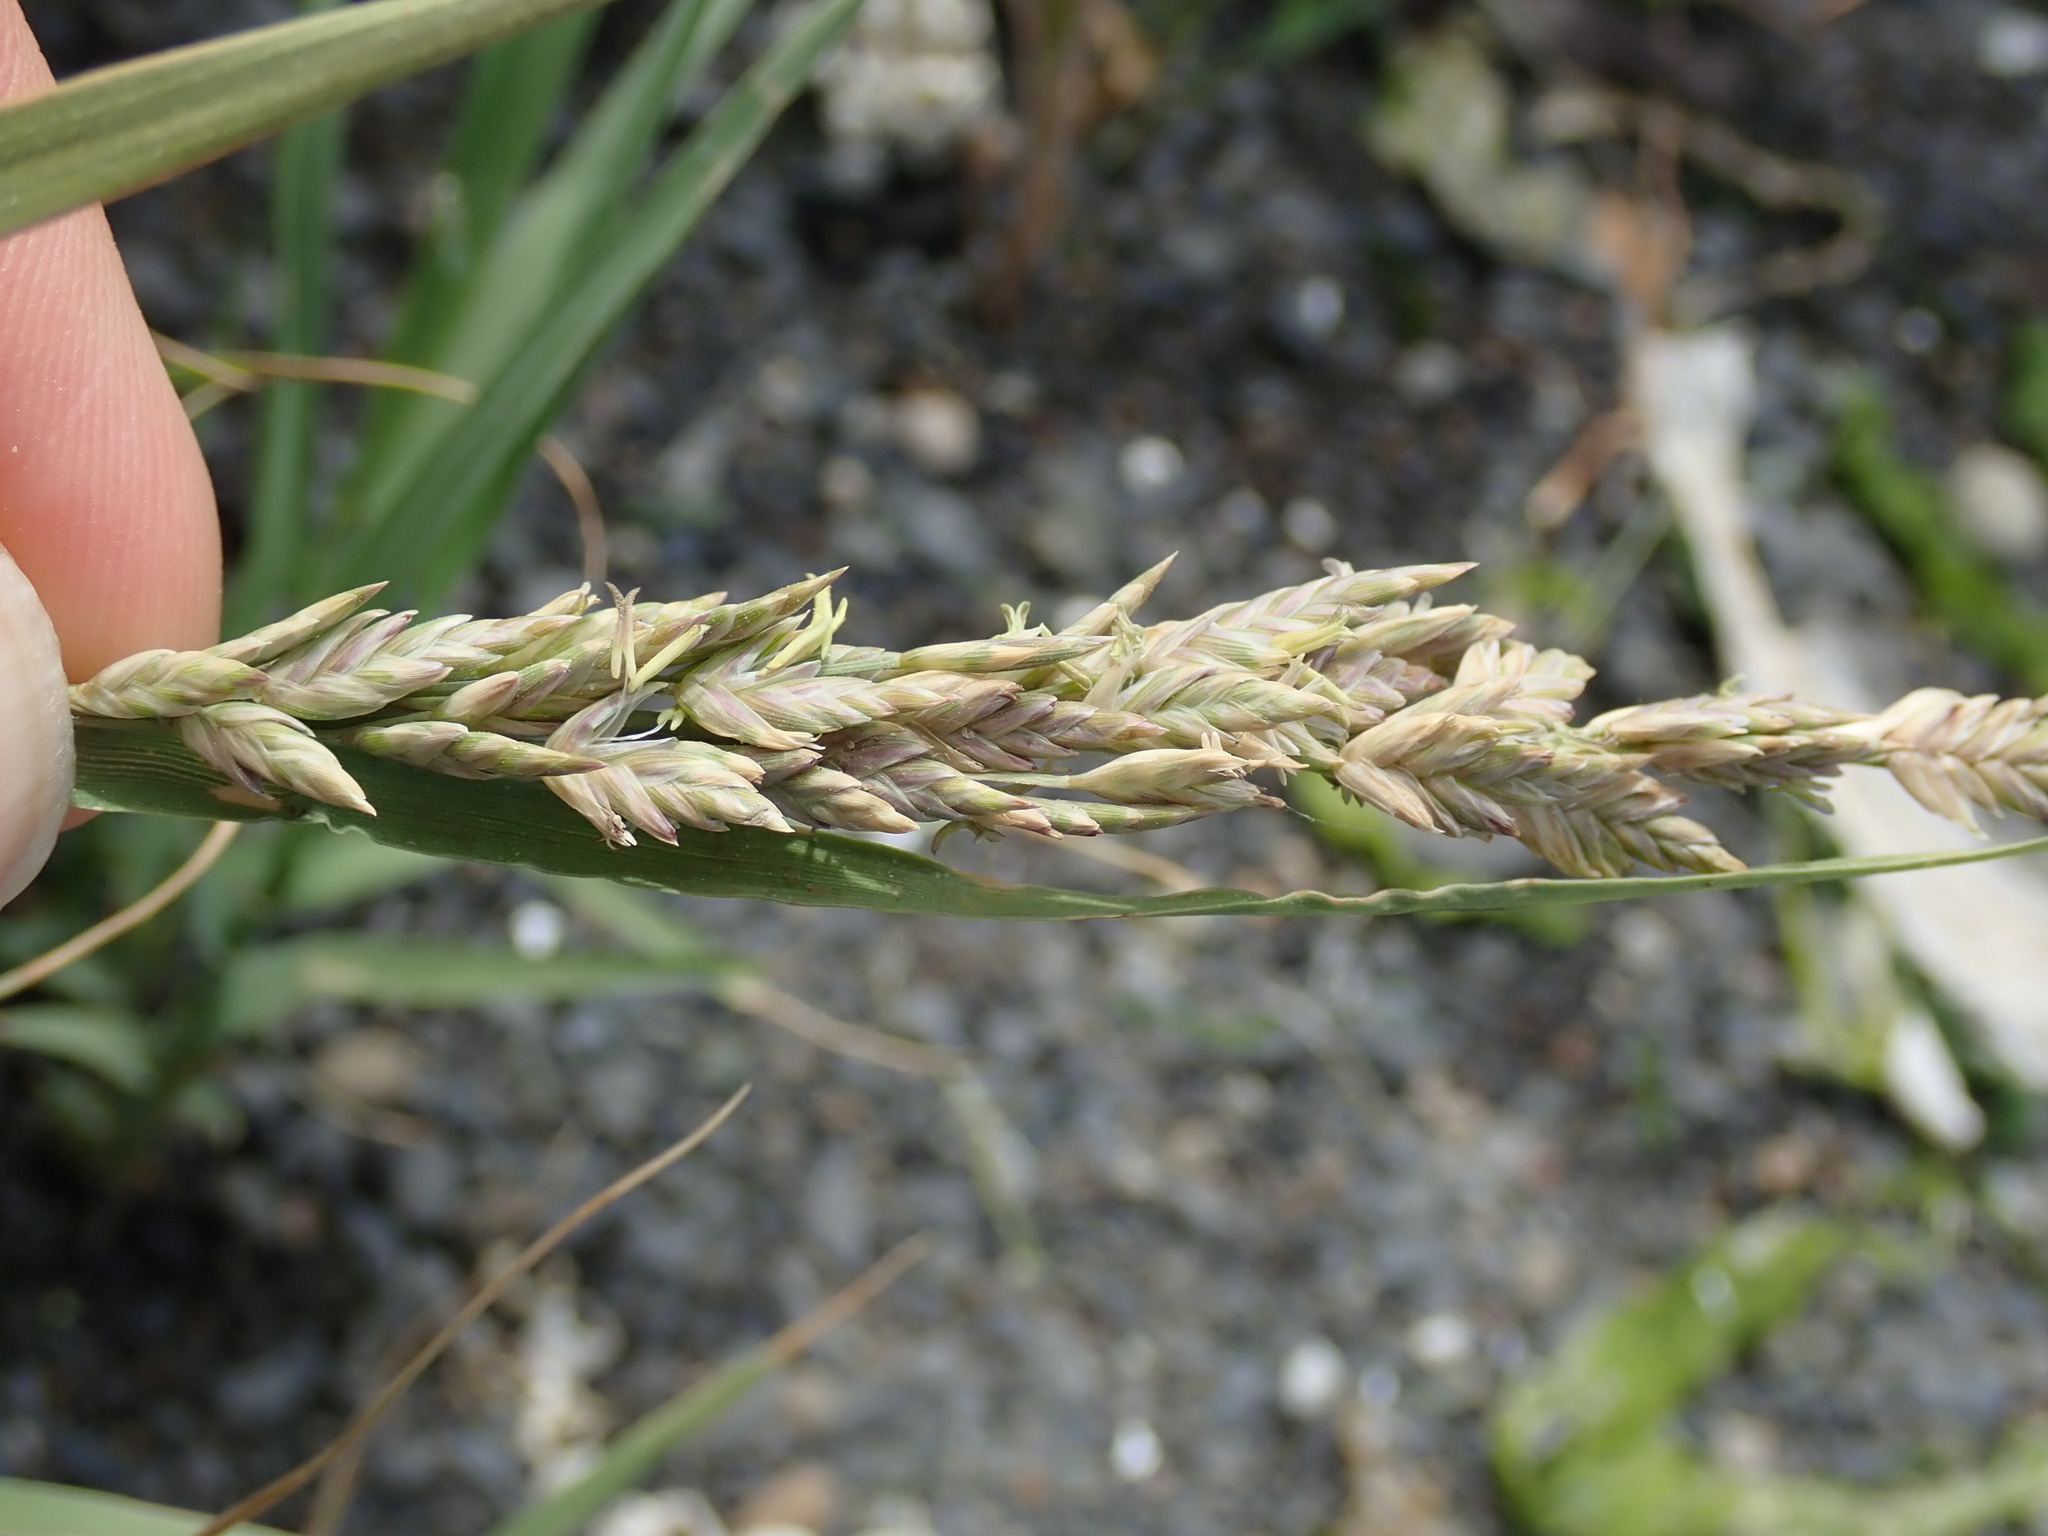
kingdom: Plantae
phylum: Tracheophyta
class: Liliopsida
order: Poales
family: Poaceae
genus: Distichlis
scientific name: Distichlis spicata
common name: Saltgrass
